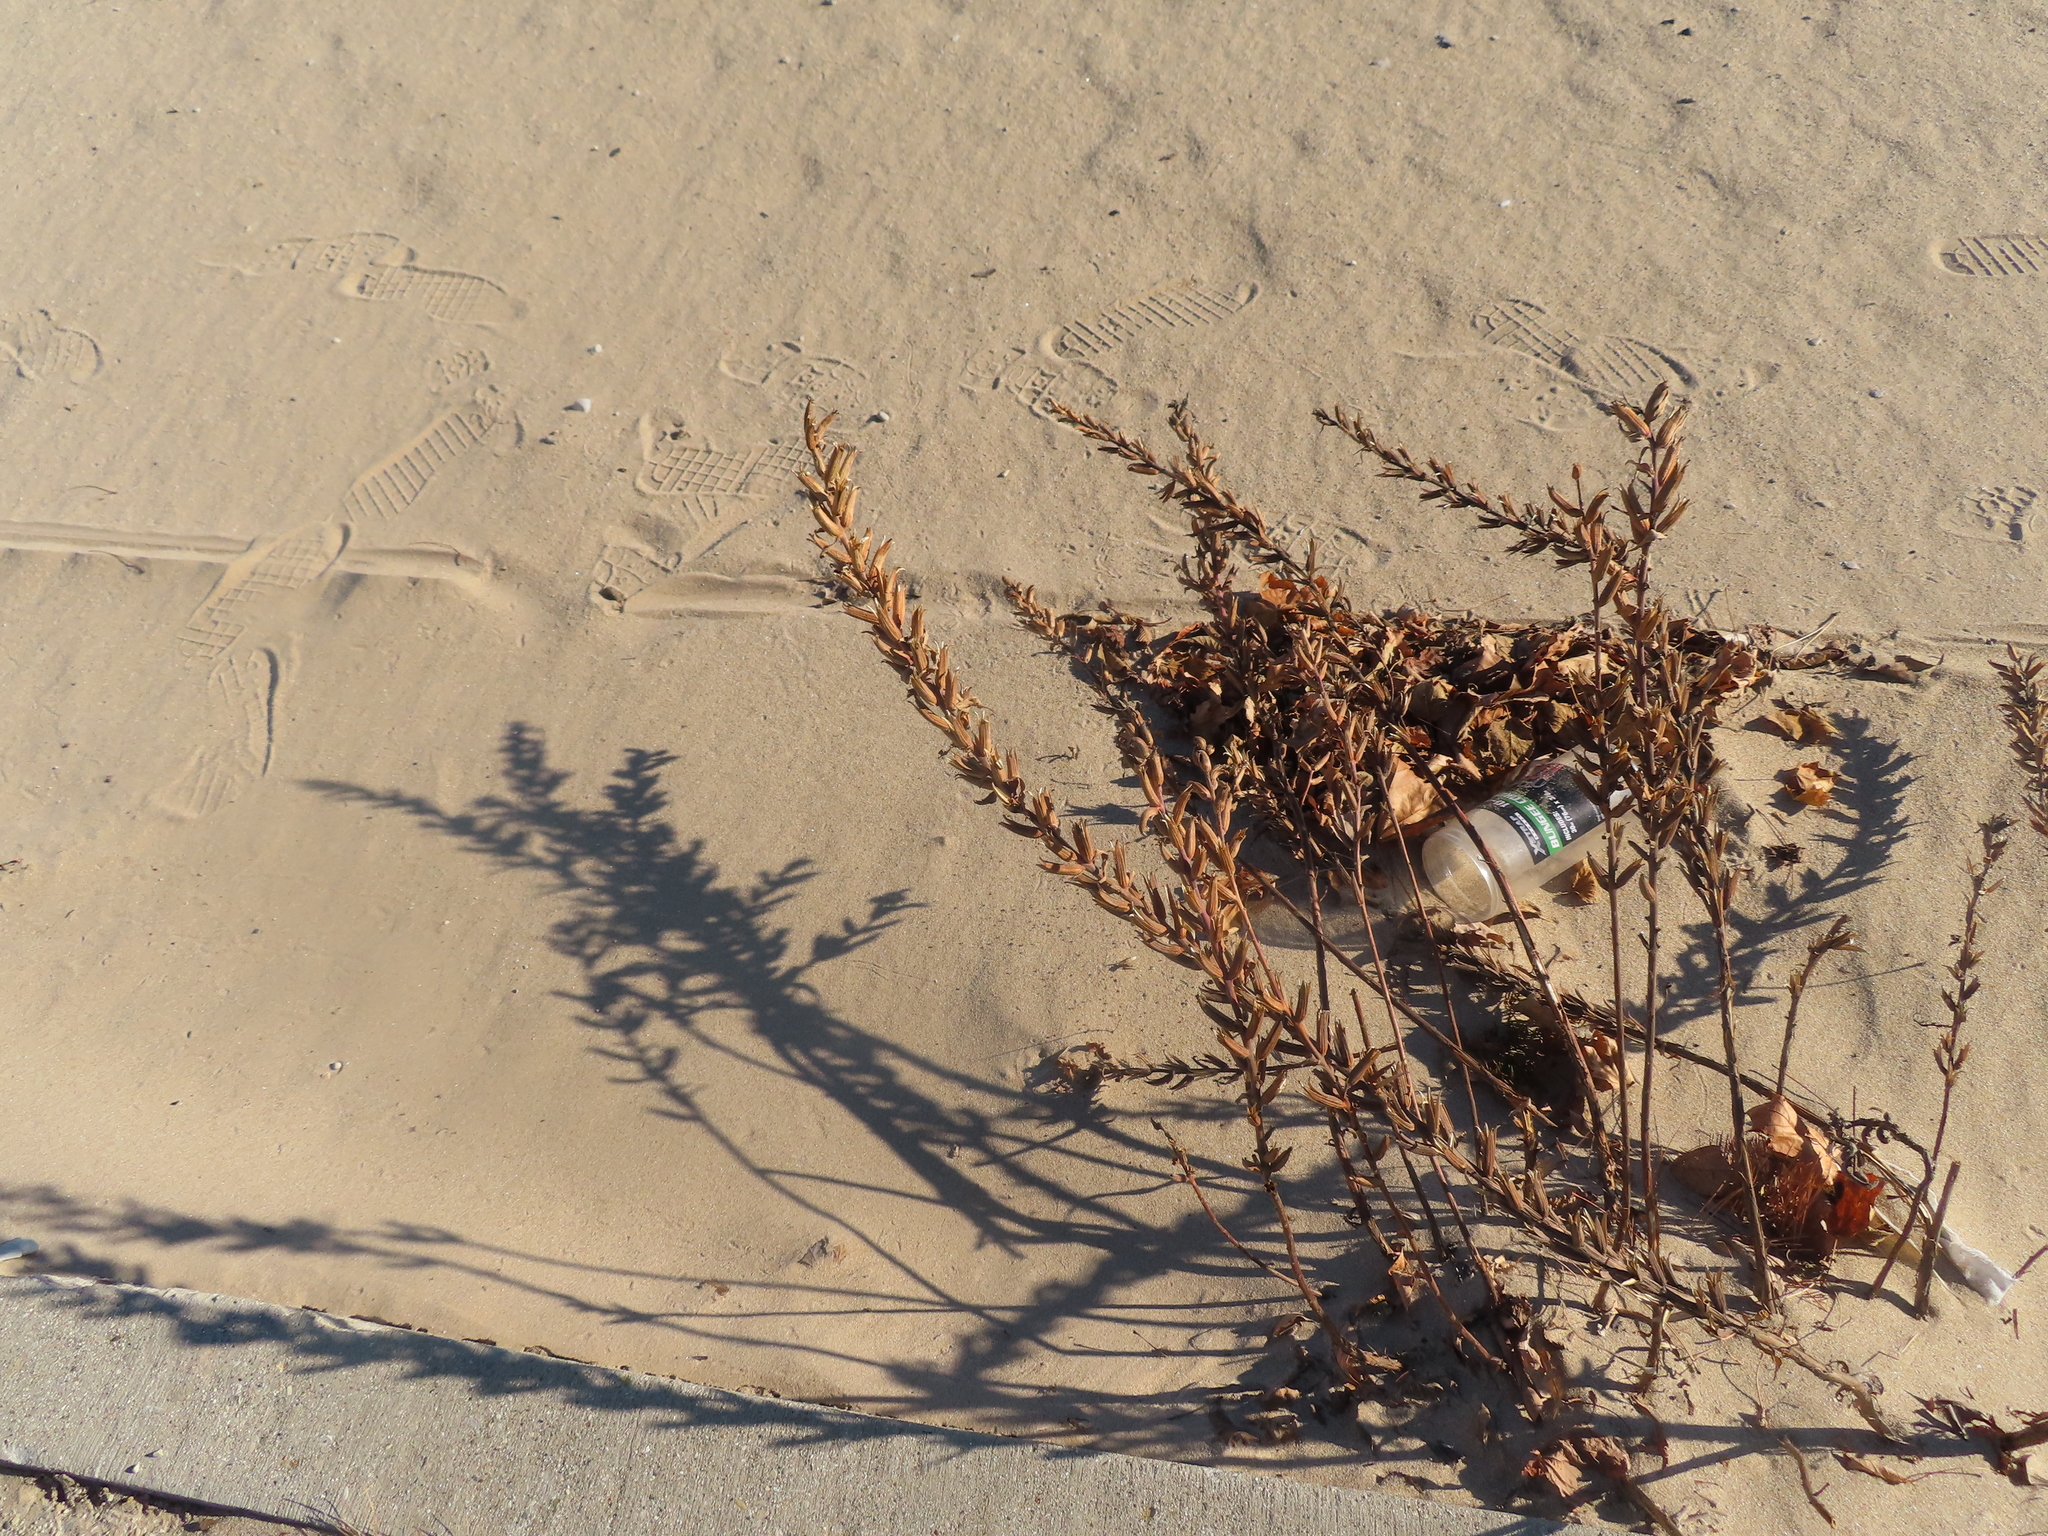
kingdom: Plantae
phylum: Tracheophyta
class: Magnoliopsida
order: Myrtales
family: Onagraceae
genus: Oenothera
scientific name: Oenothera biennis
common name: Common evening-primrose
